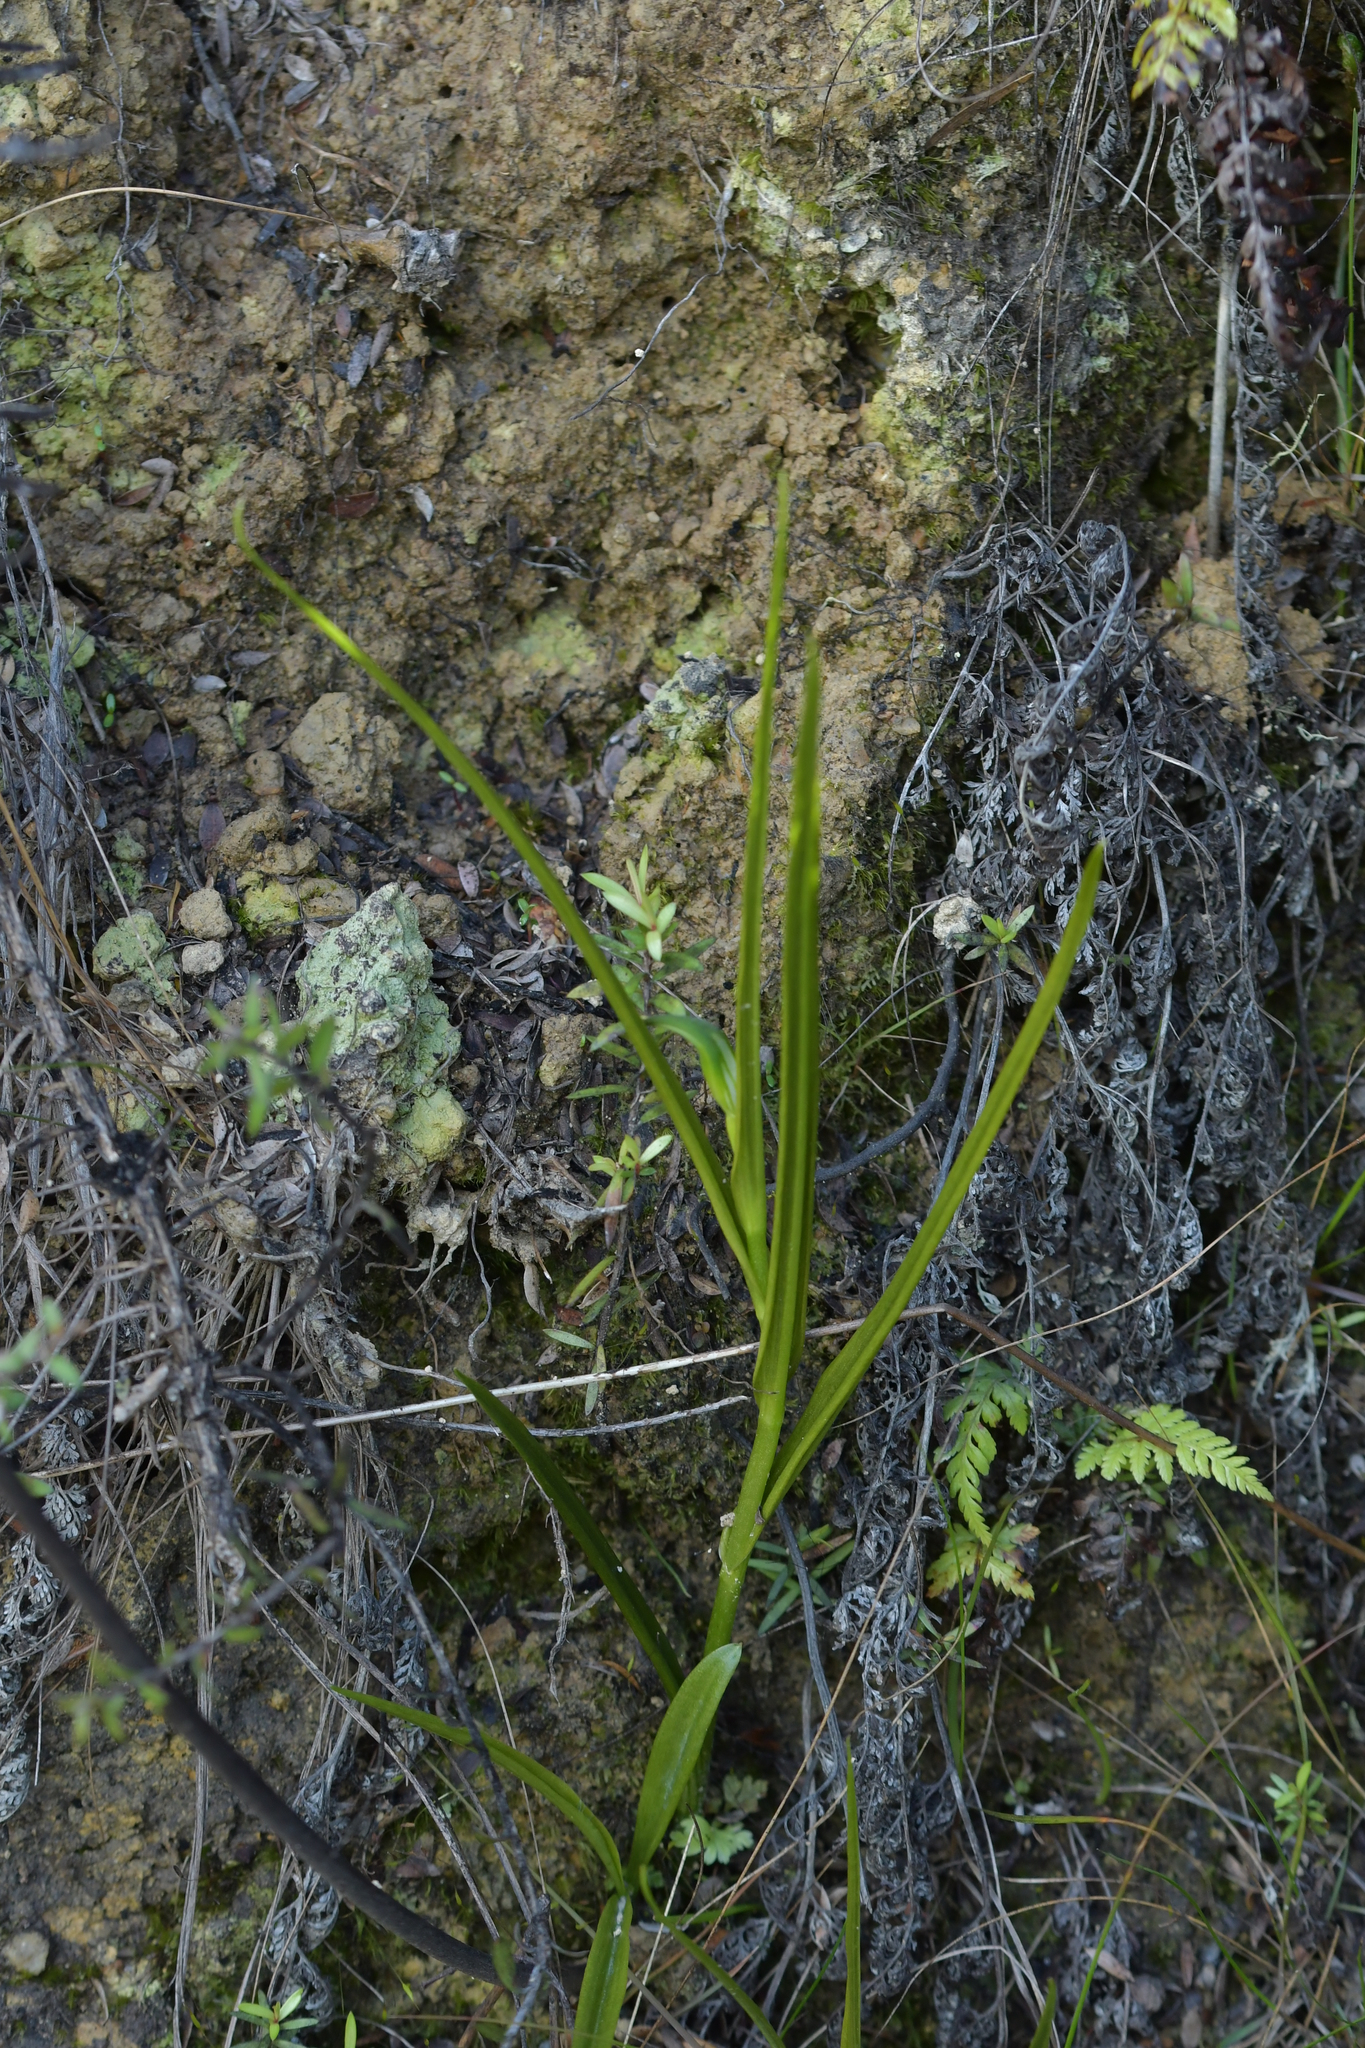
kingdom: Plantae
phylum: Tracheophyta
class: Liliopsida
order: Asparagales
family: Orchidaceae
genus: Pterostylis
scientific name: Pterostylis graminea
